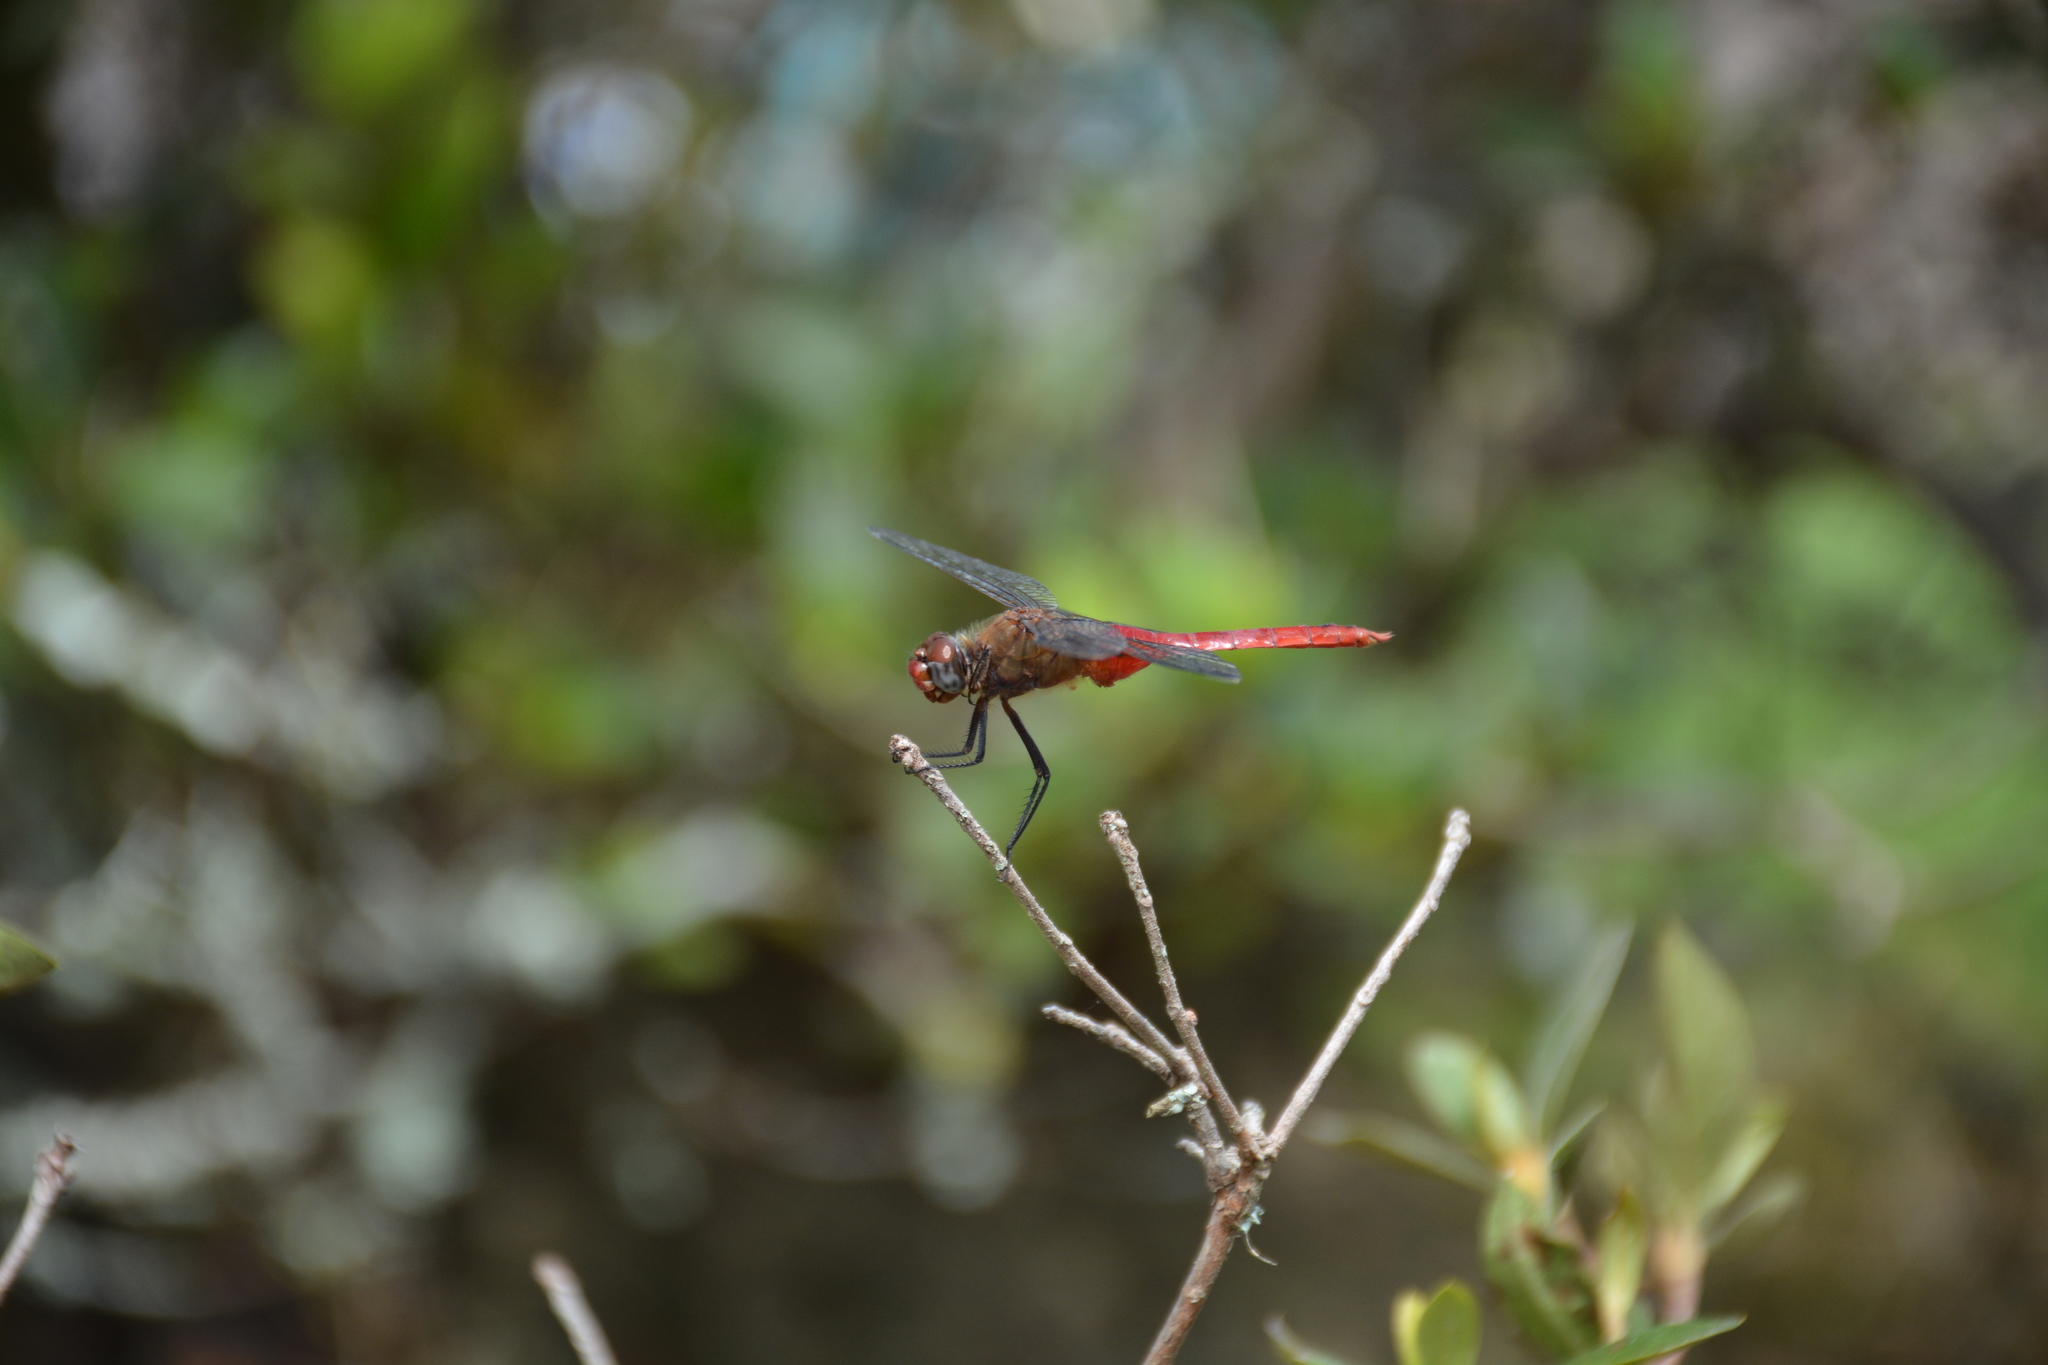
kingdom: Animalia
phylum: Arthropoda
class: Insecta
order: Odonata
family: Libellulidae
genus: Brachymesia
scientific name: Brachymesia furcata
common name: Red-taled pennant
